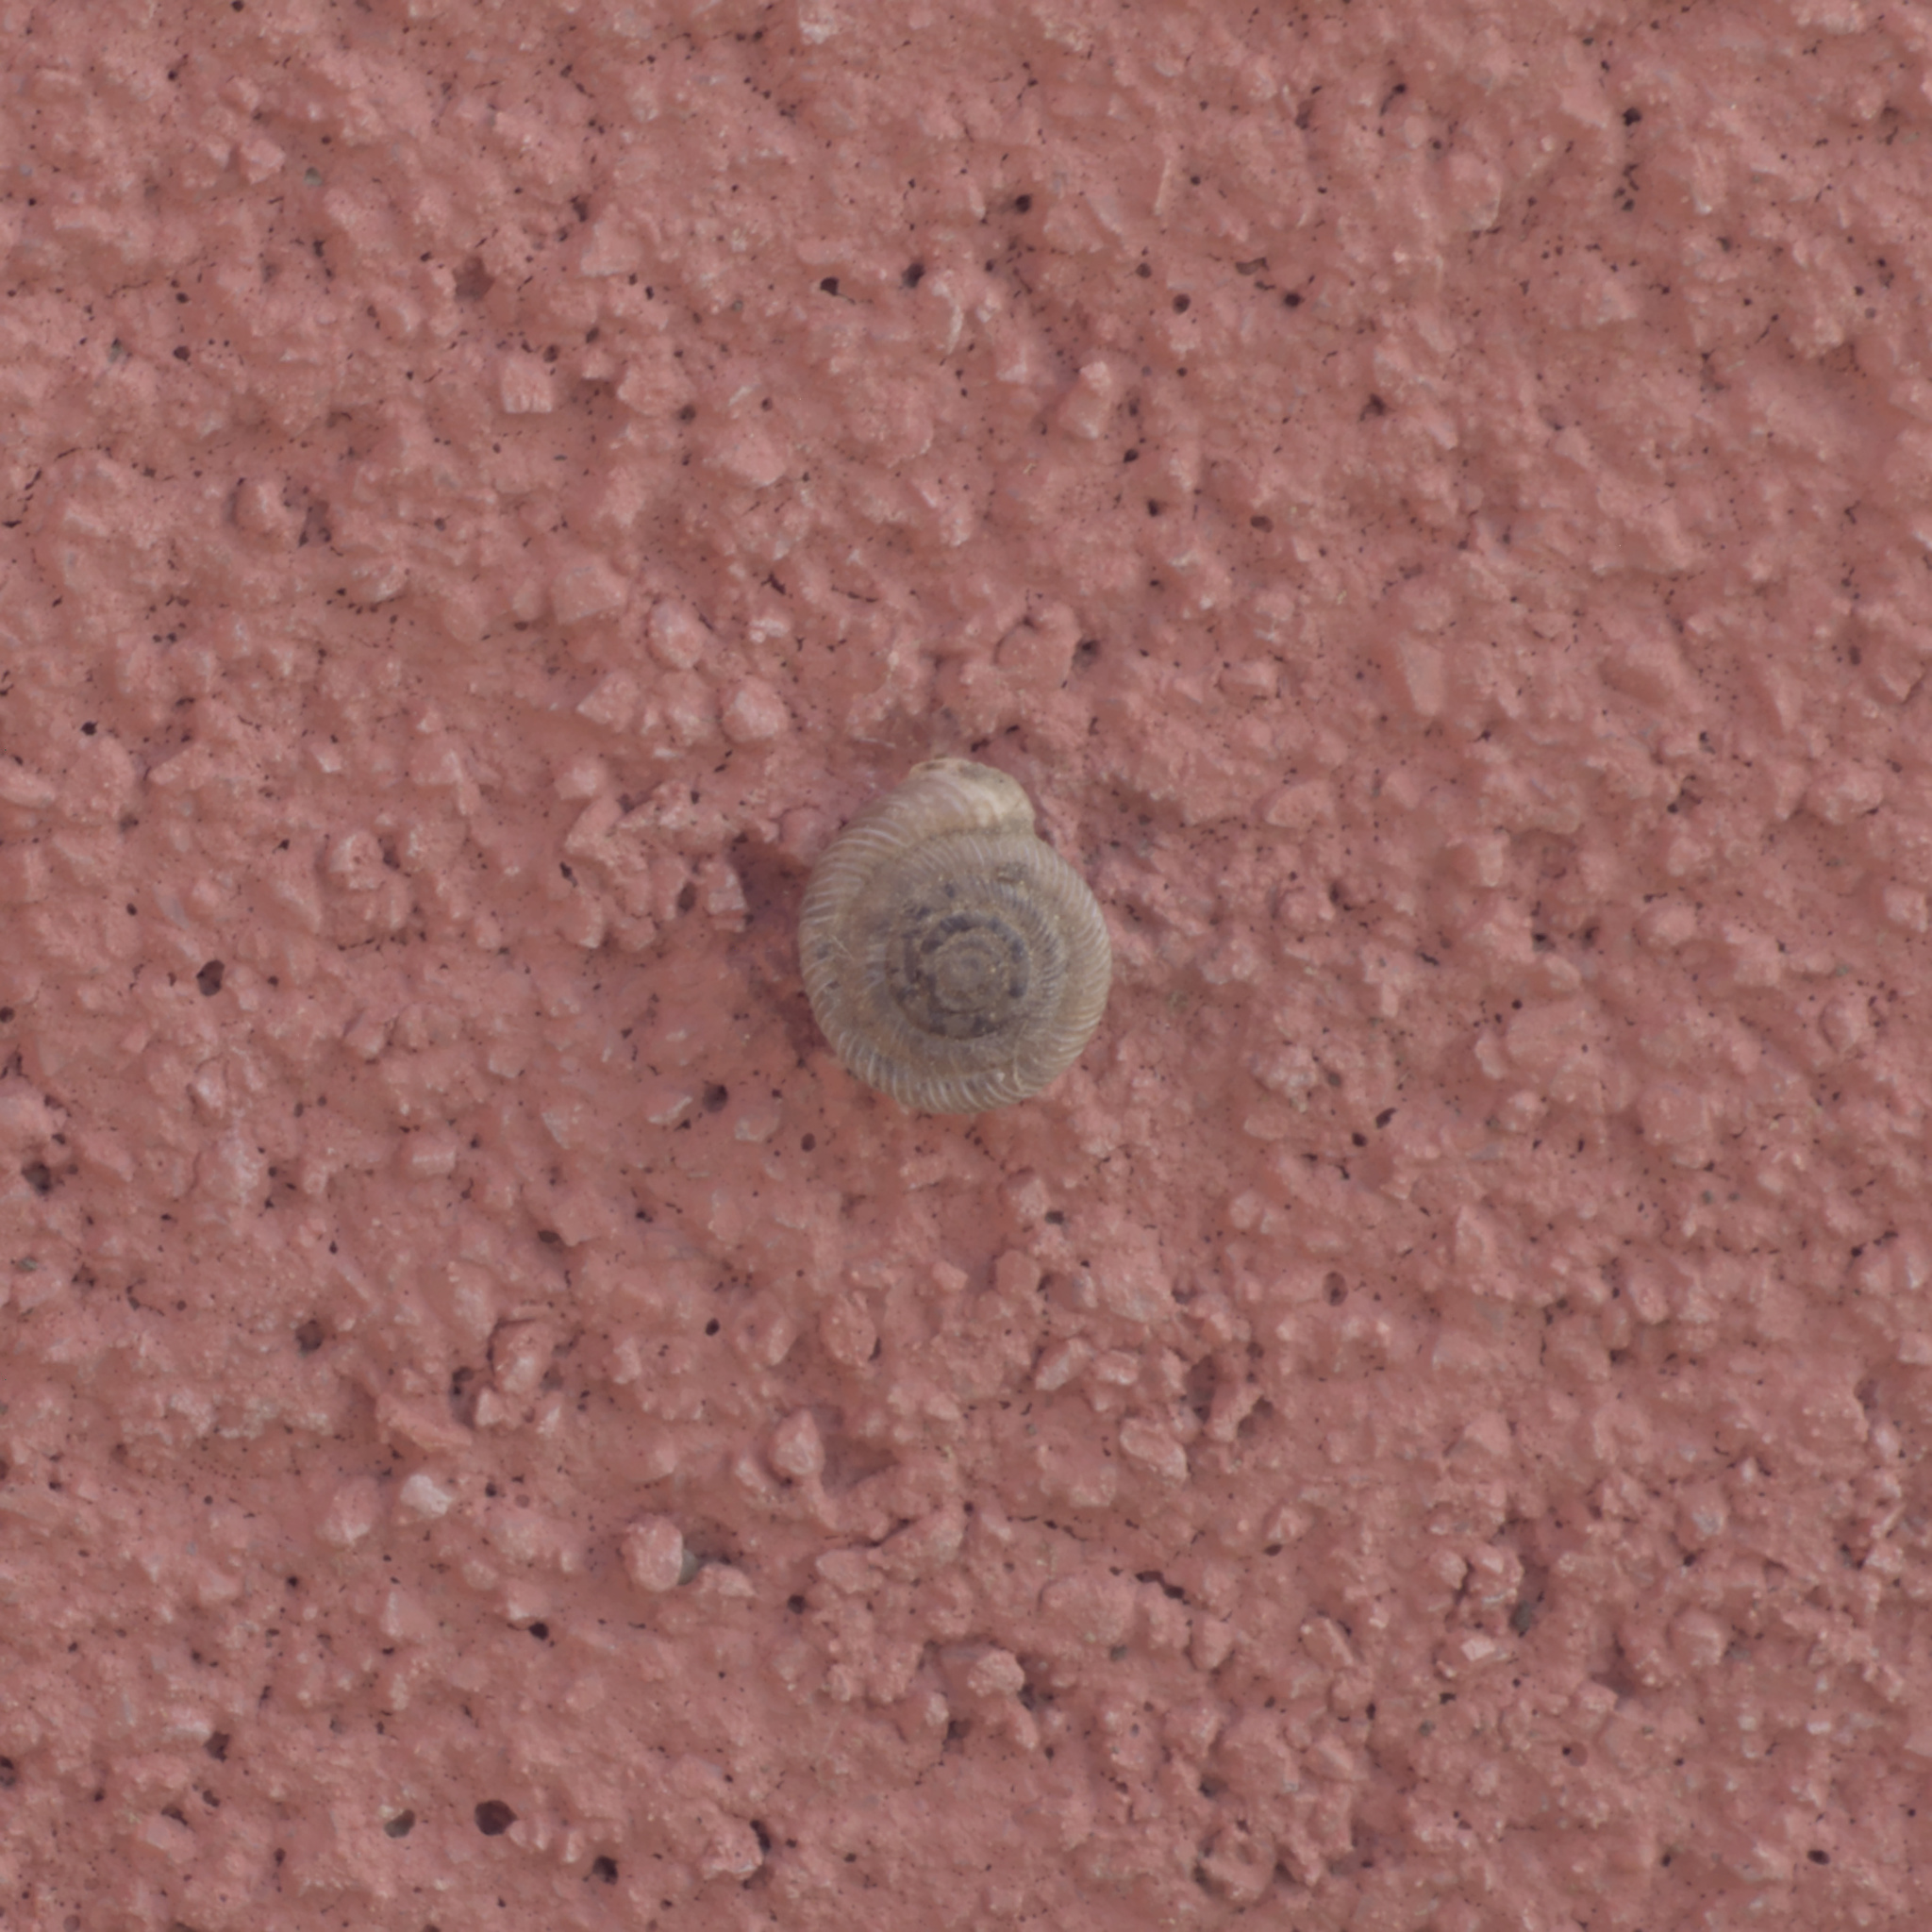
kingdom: Animalia
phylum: Mollusca
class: Gastropoda
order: Stylommatophora
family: Polygyridae
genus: Polygyra
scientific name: Polygyra cereolus
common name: Southern flatcone snail
